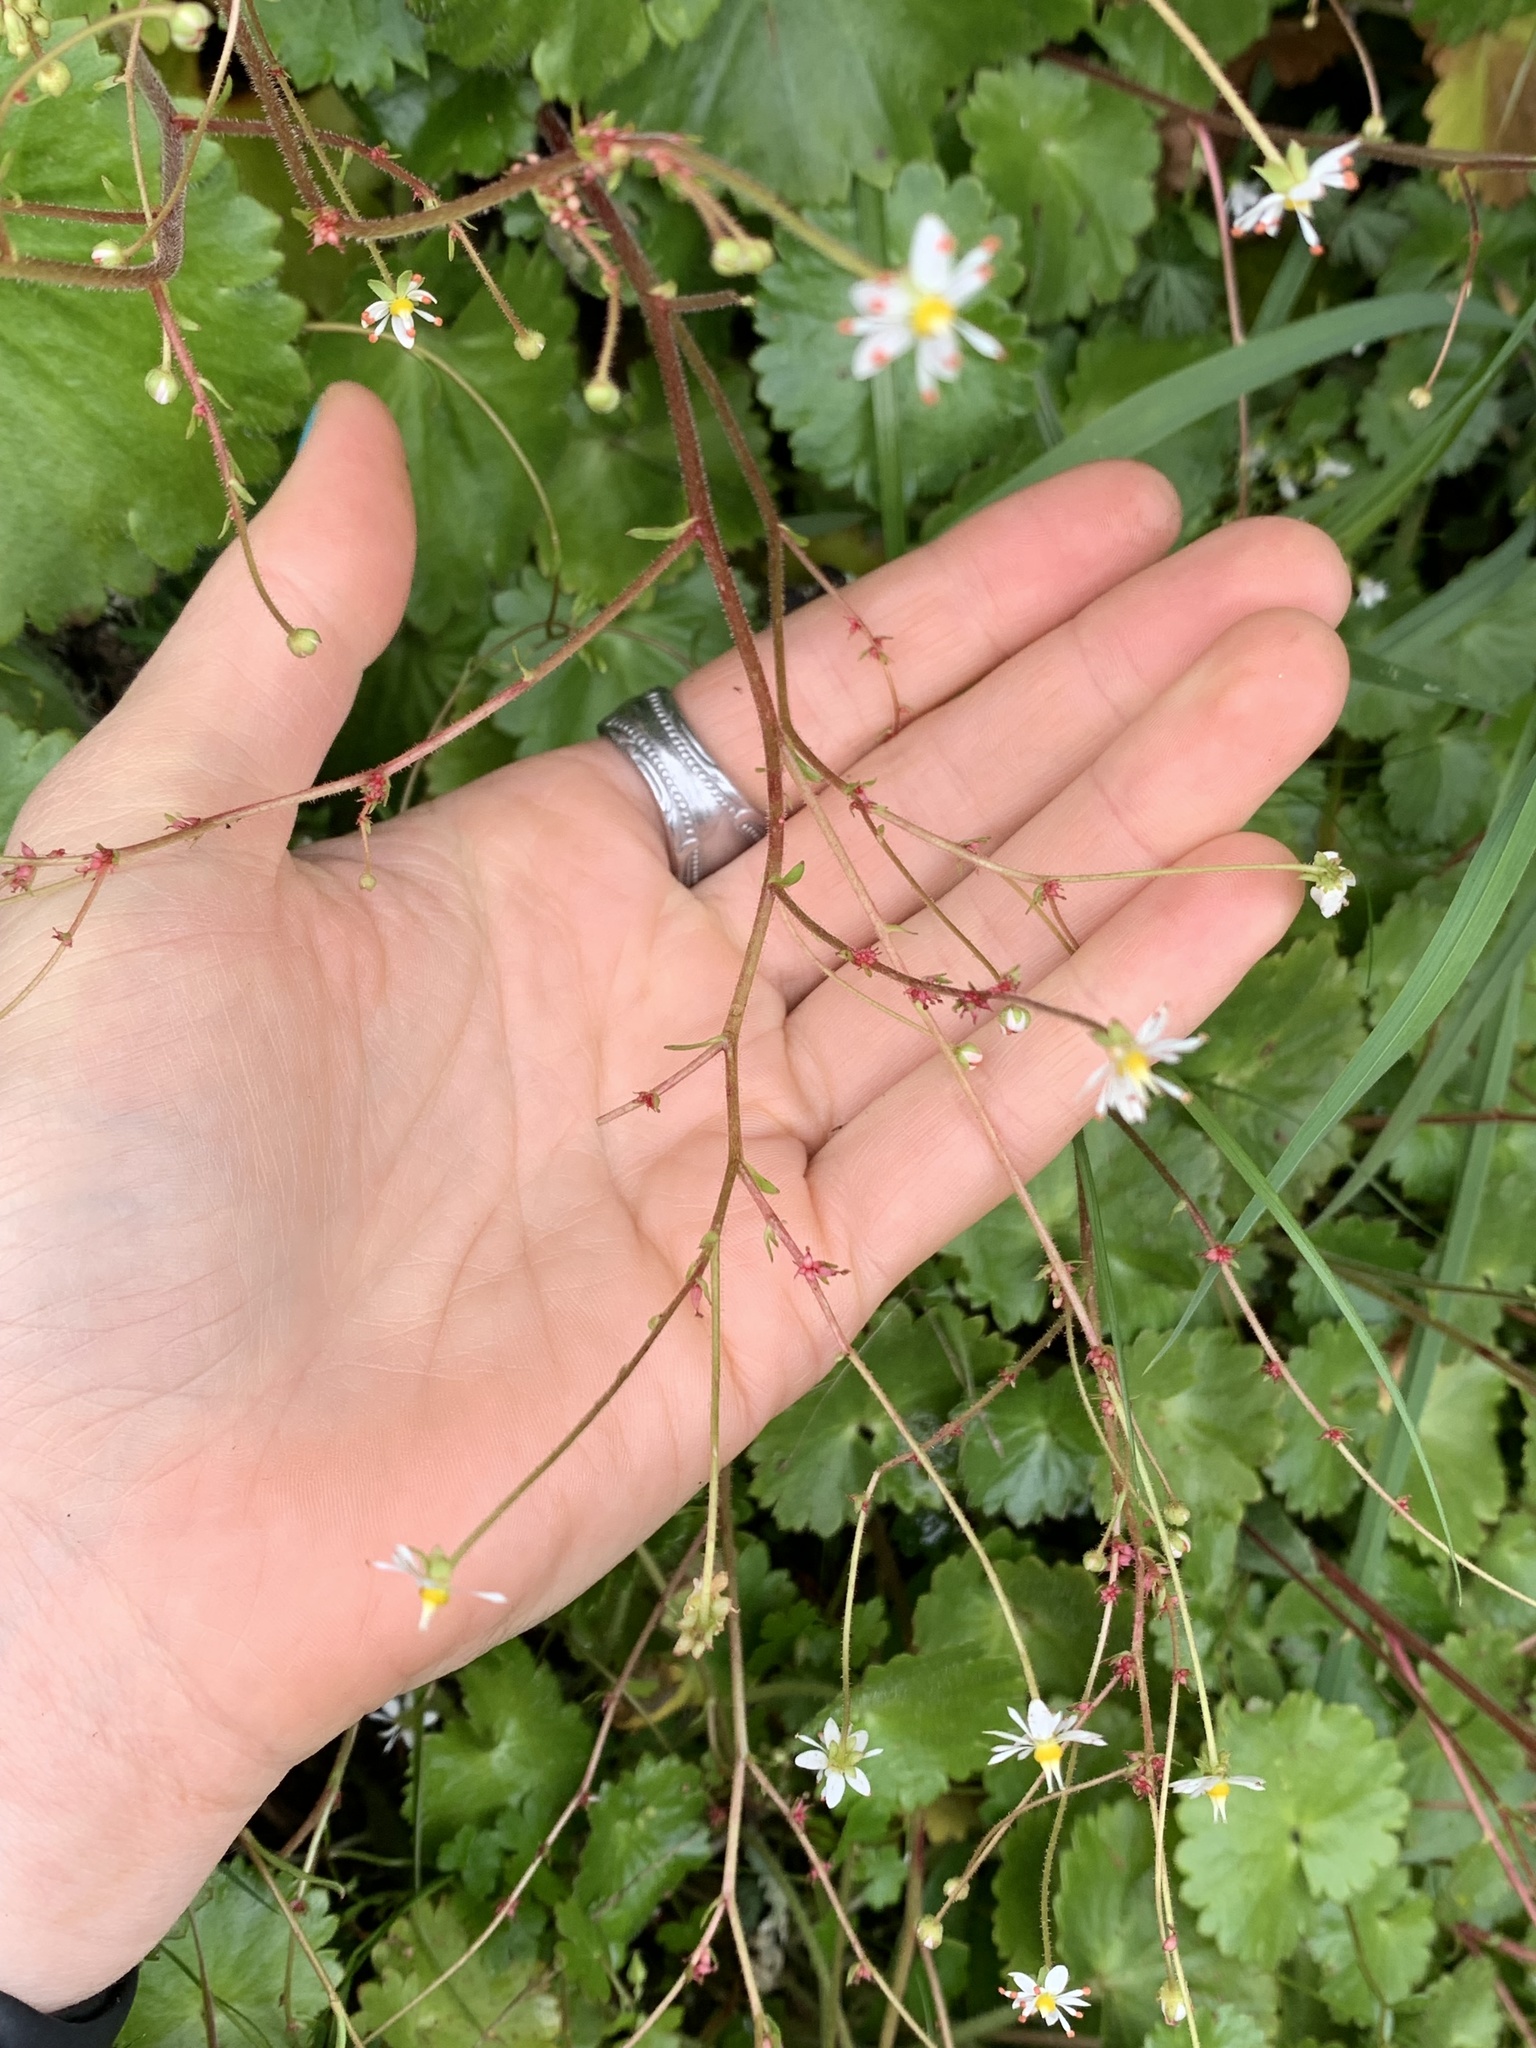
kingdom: Plantae
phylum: Tracheophyta
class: Magnoliopsida
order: Saxifragales
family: Saxifragaceae
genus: Micranthes
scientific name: Micranthes mertensiana
